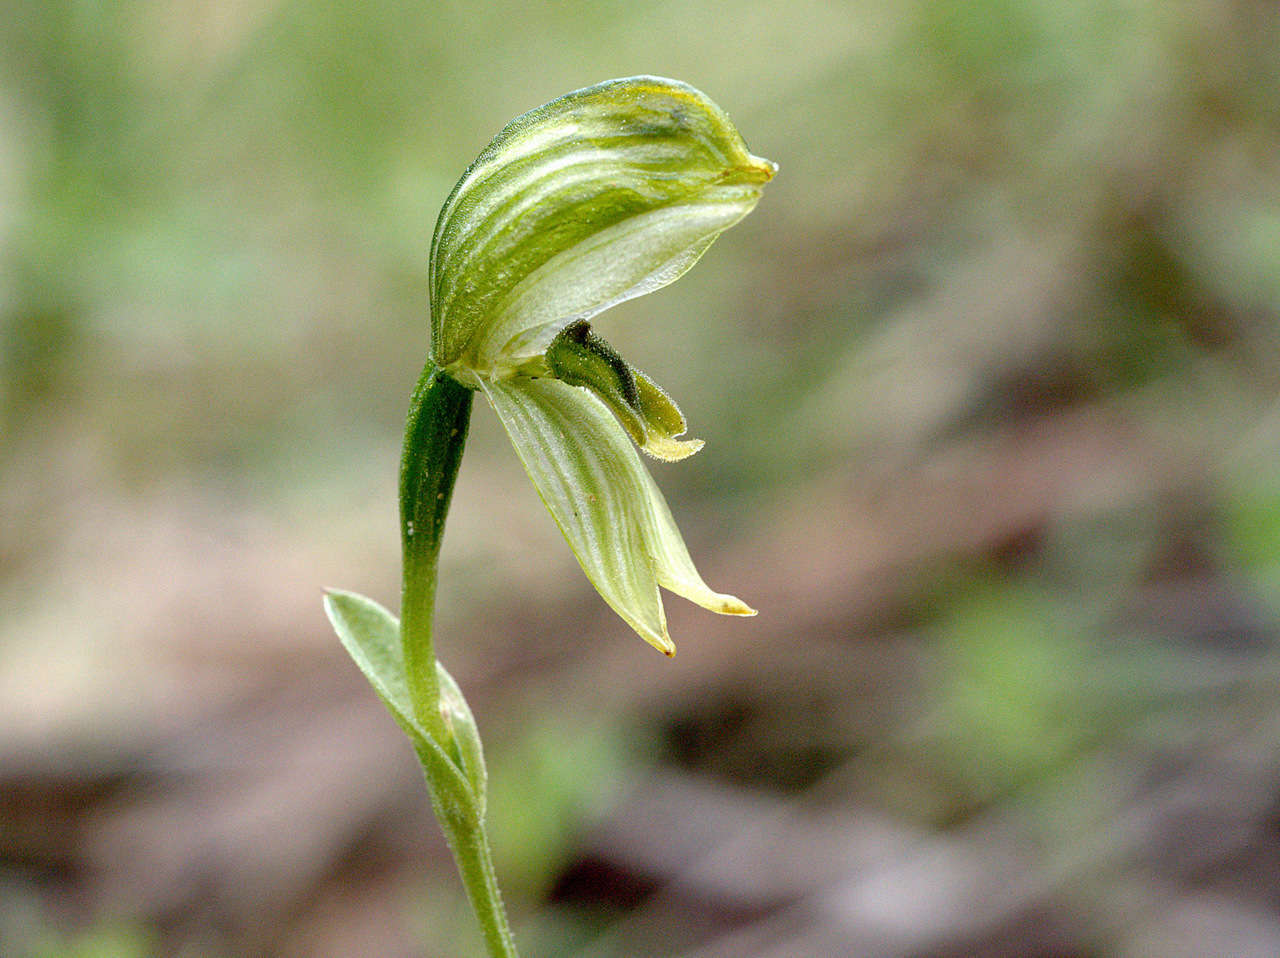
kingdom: Plantae
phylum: Tracheophyta
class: Liliopsida
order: Asparagales
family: Orchidaceae
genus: Pterostylis
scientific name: Pterostylis smaragdyna
